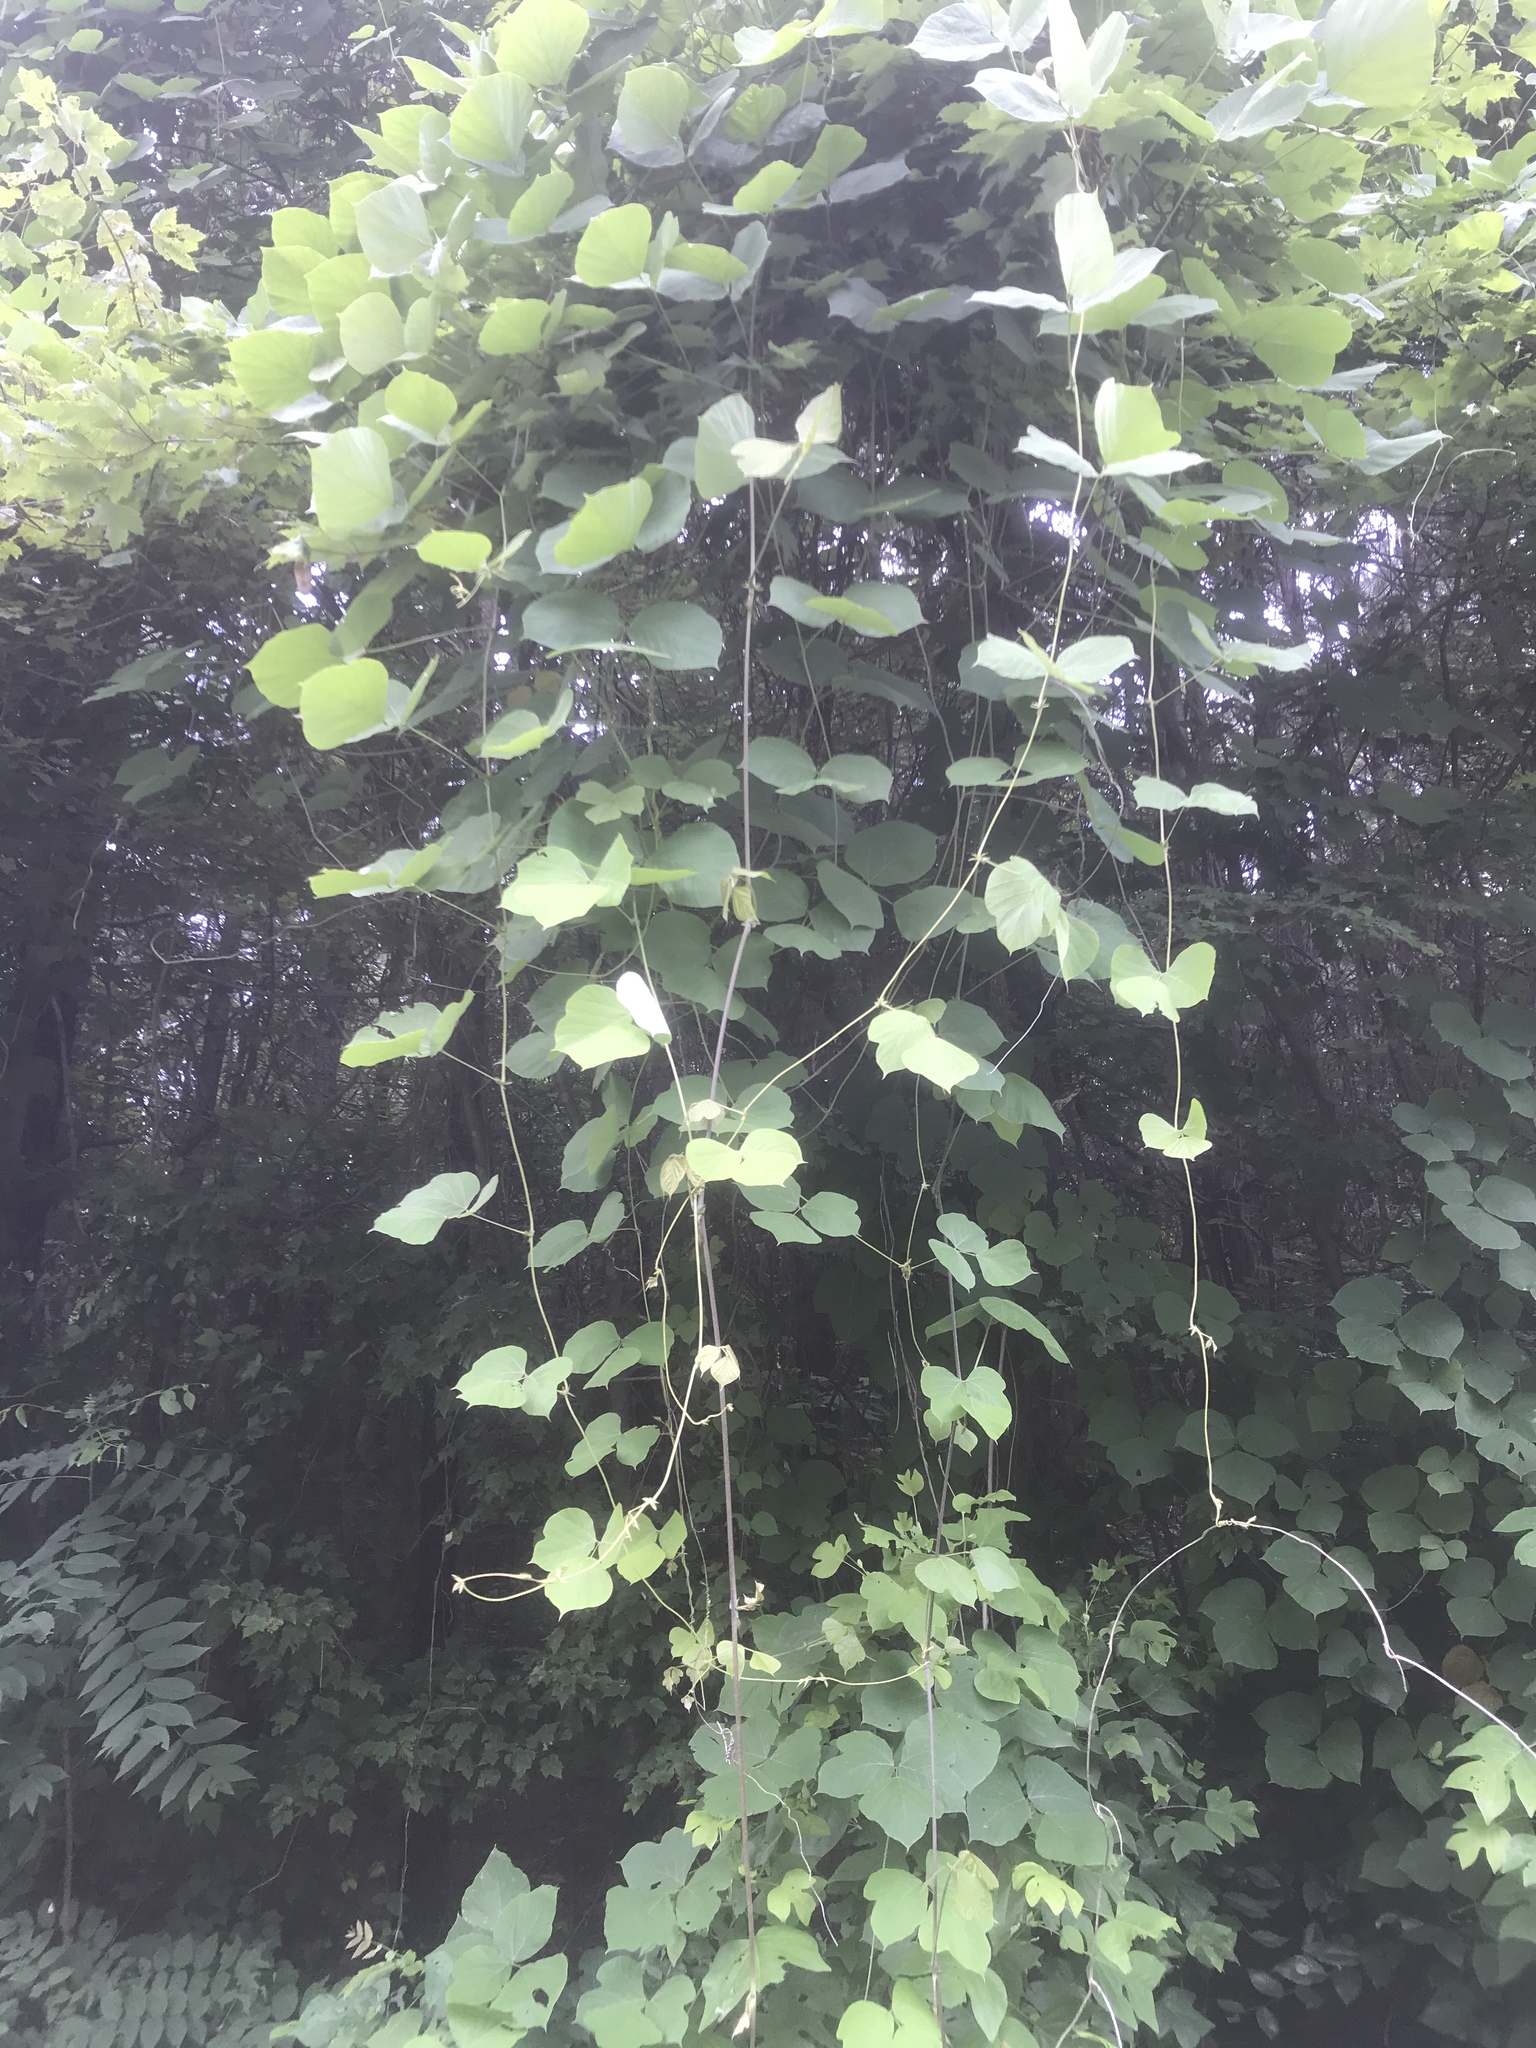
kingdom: Plantae
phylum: Tracheophyta
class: Magnoliopsida
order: Fabales
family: Fabaceae
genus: Pueraria
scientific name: Pueraria montana
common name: Kudzu
